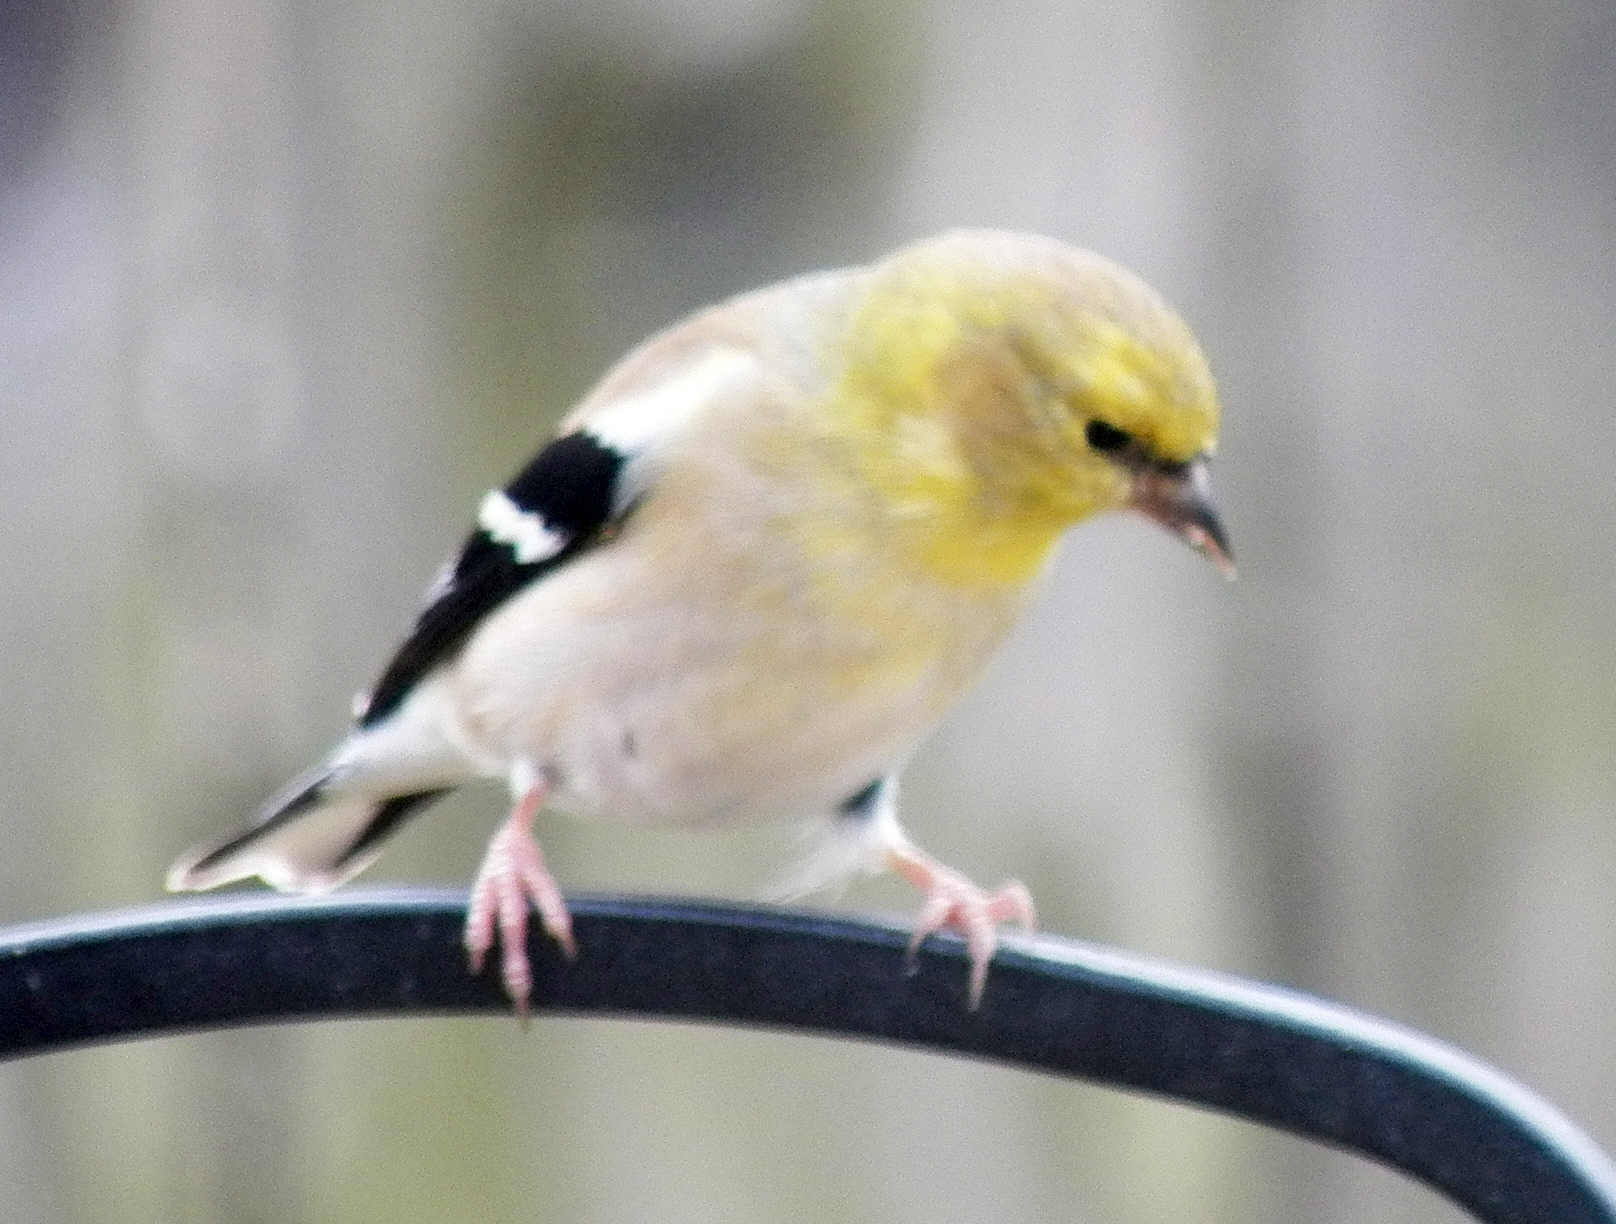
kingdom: Animalia
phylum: Chordata
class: Aves
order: Passeriformes
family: Fringillidae
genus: Spinus
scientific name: Spinus tristis
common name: American goldfinch
